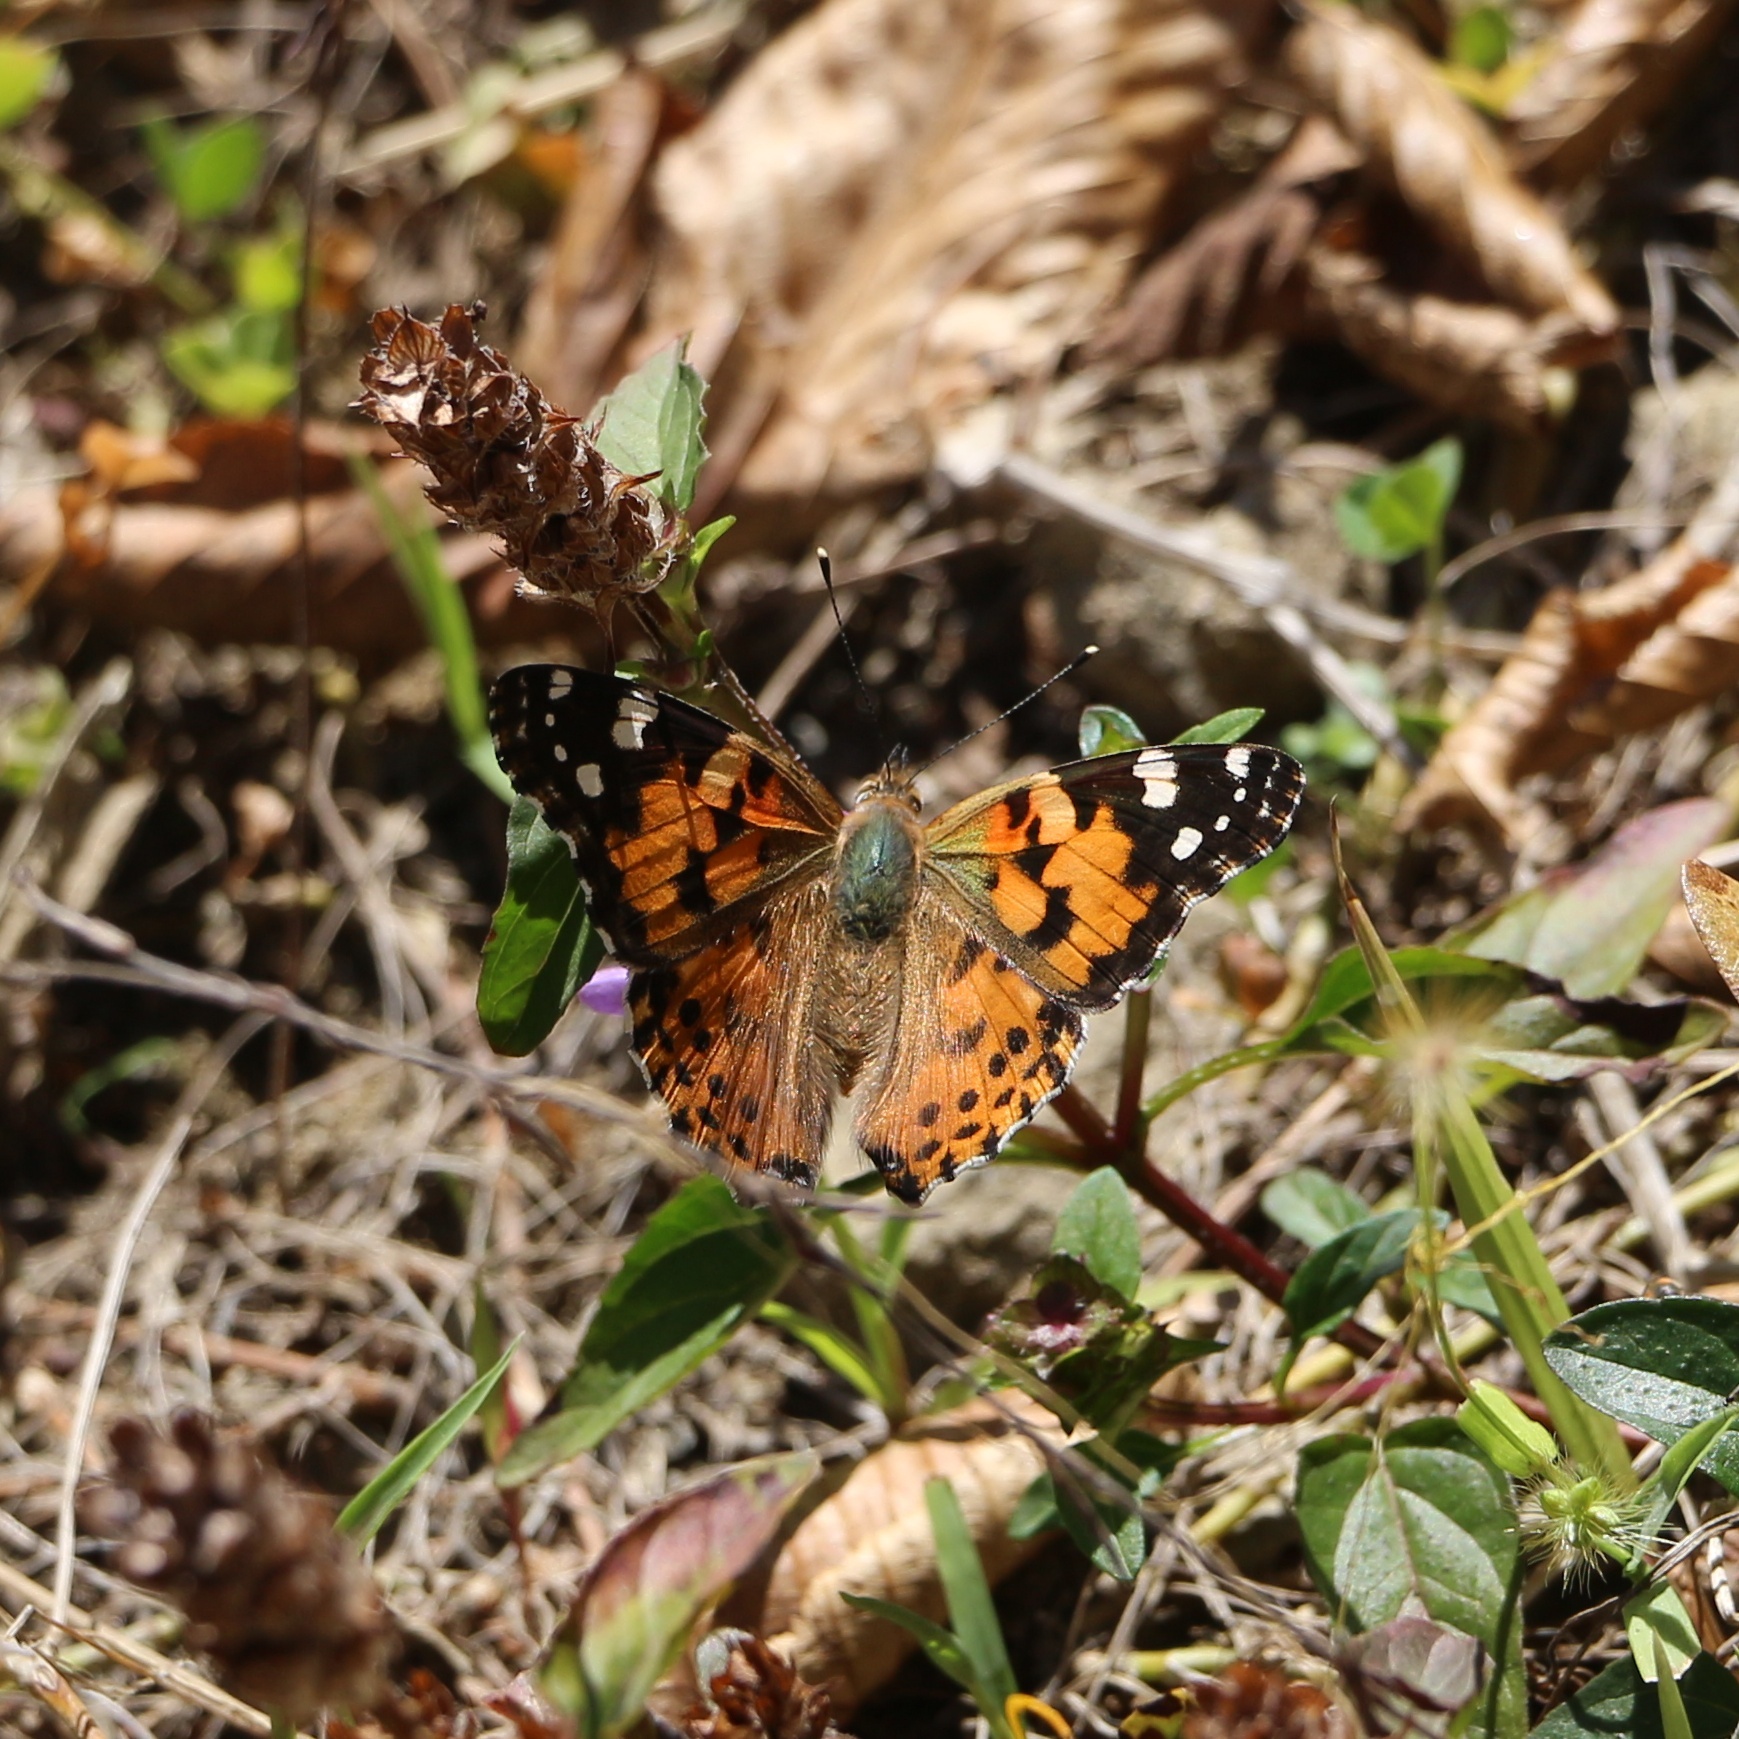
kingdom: Animalia
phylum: Arthropoda
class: Insecta
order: Lepidoptera
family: Nymphalidae
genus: Vanessa
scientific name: Vanessa cardui
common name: Painted lady
